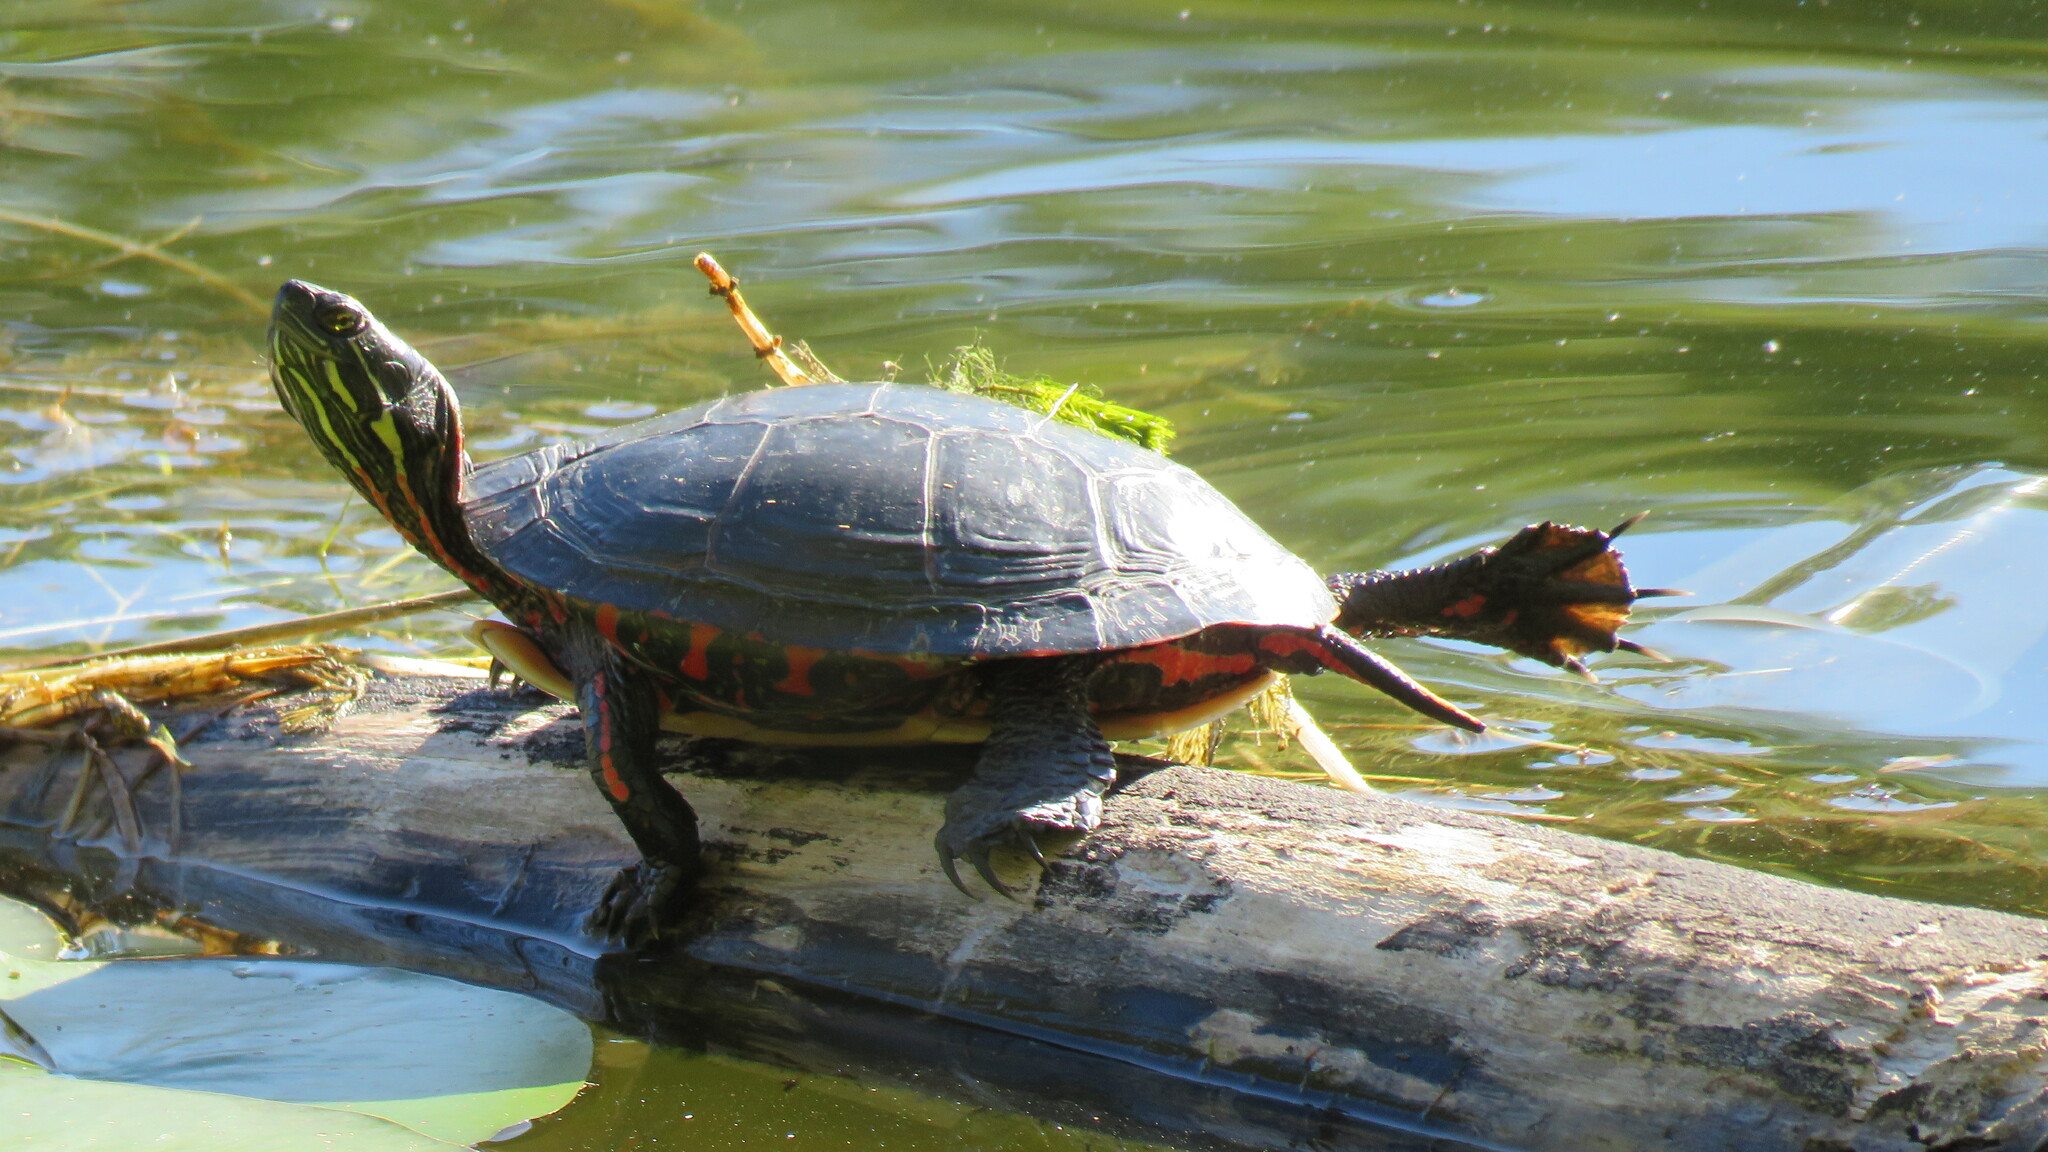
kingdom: Animalia
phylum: Chordata
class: Testudines
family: Emydidae
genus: Chrysemys
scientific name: Chrysemys picta
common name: Painted turtle
